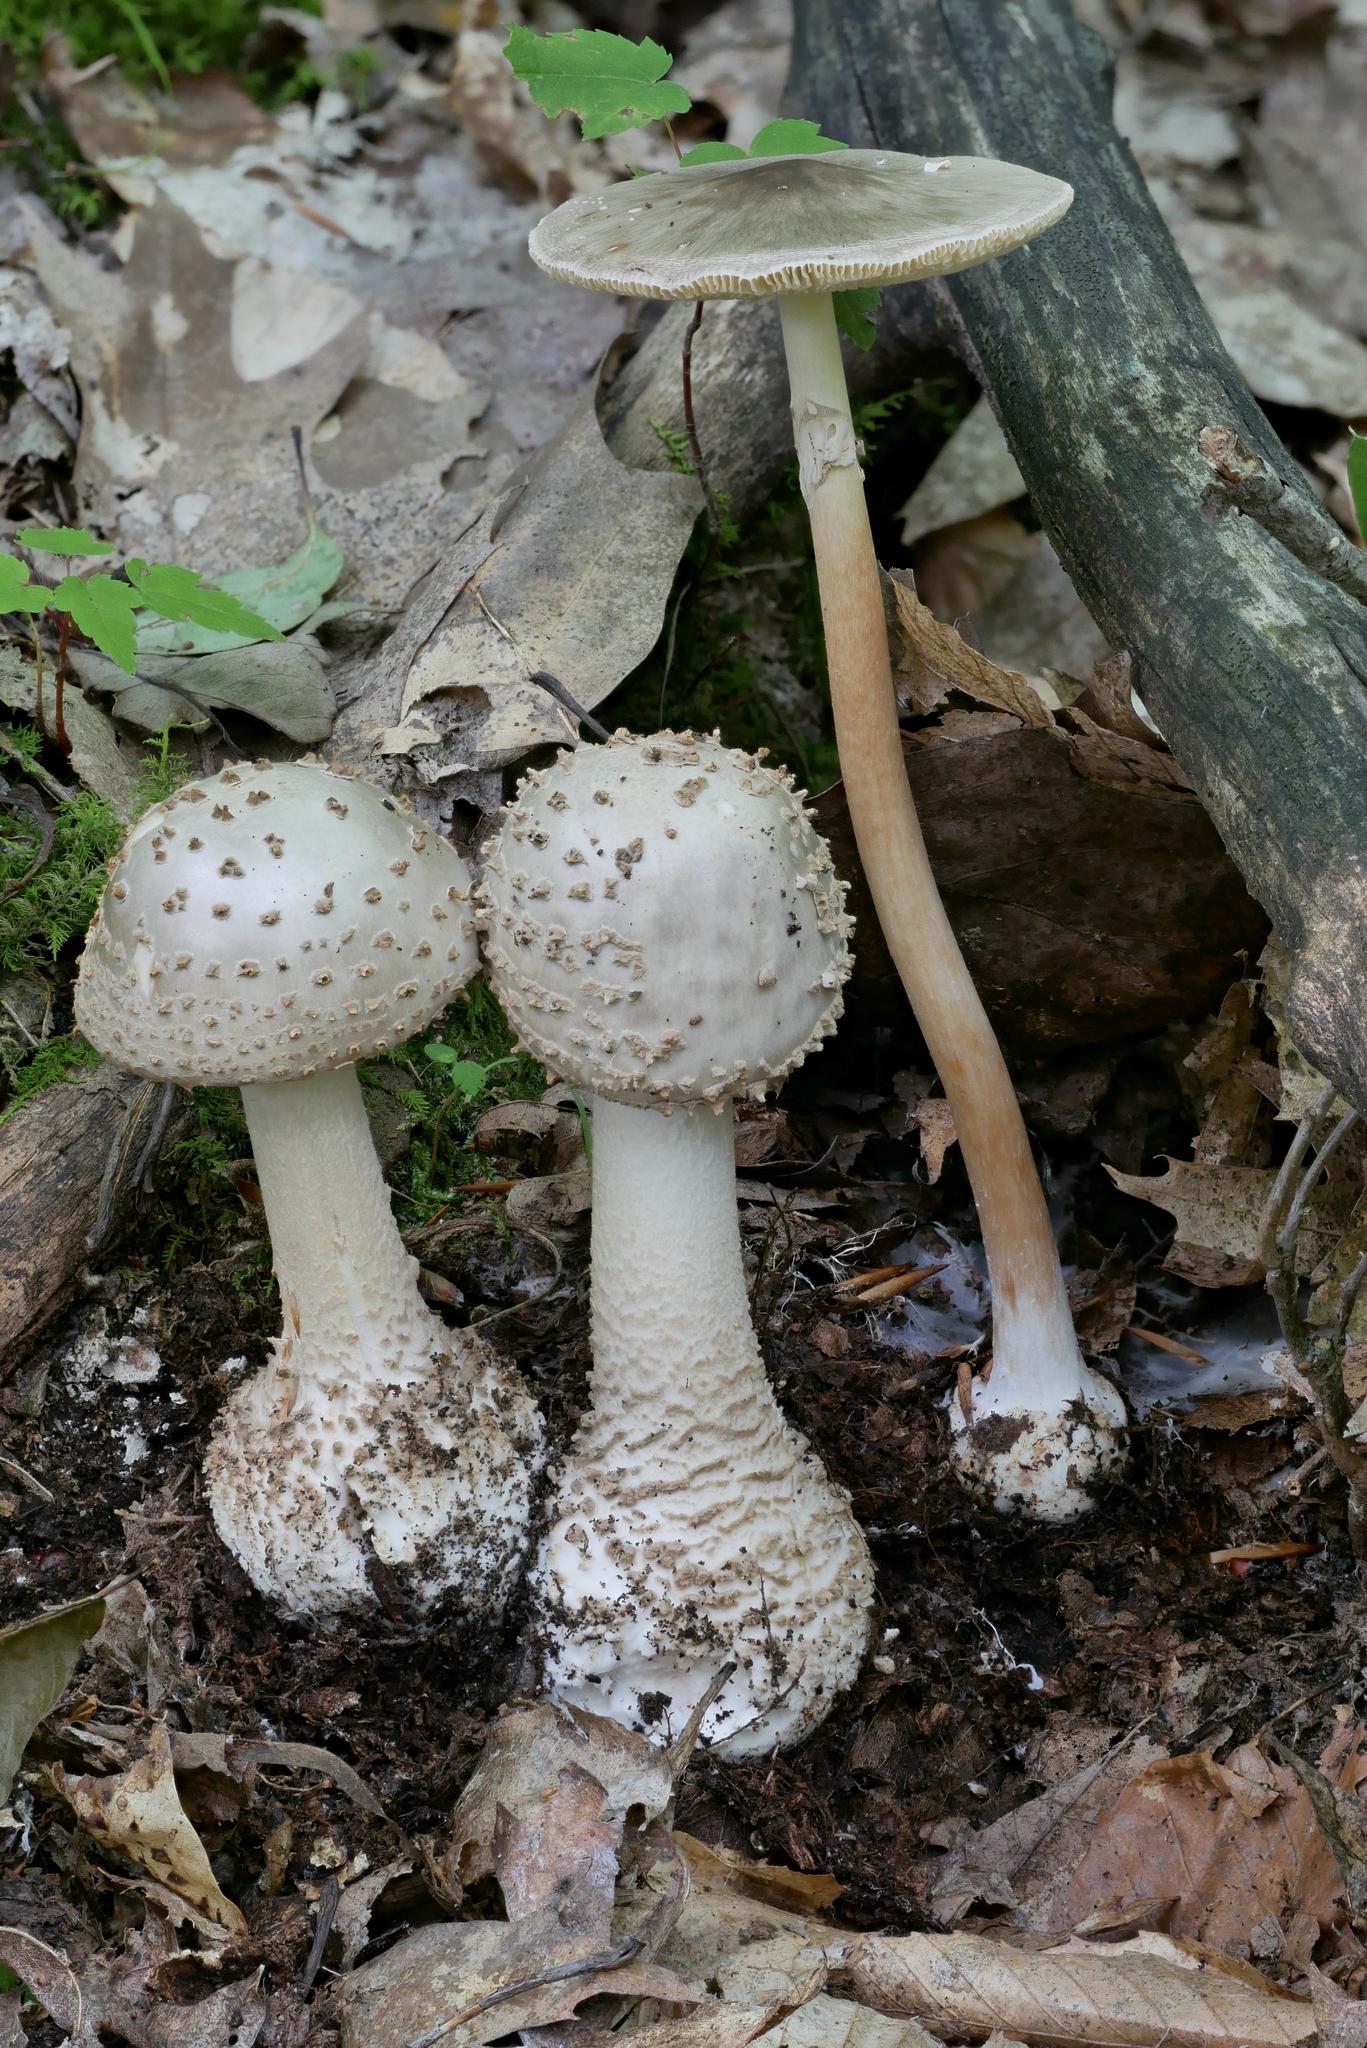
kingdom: Fungi
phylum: Basidiomycota
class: Agaricomycetes
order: Agaricales
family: Amanitaceae
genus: Amanita
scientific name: Amanita atkinsoniana
